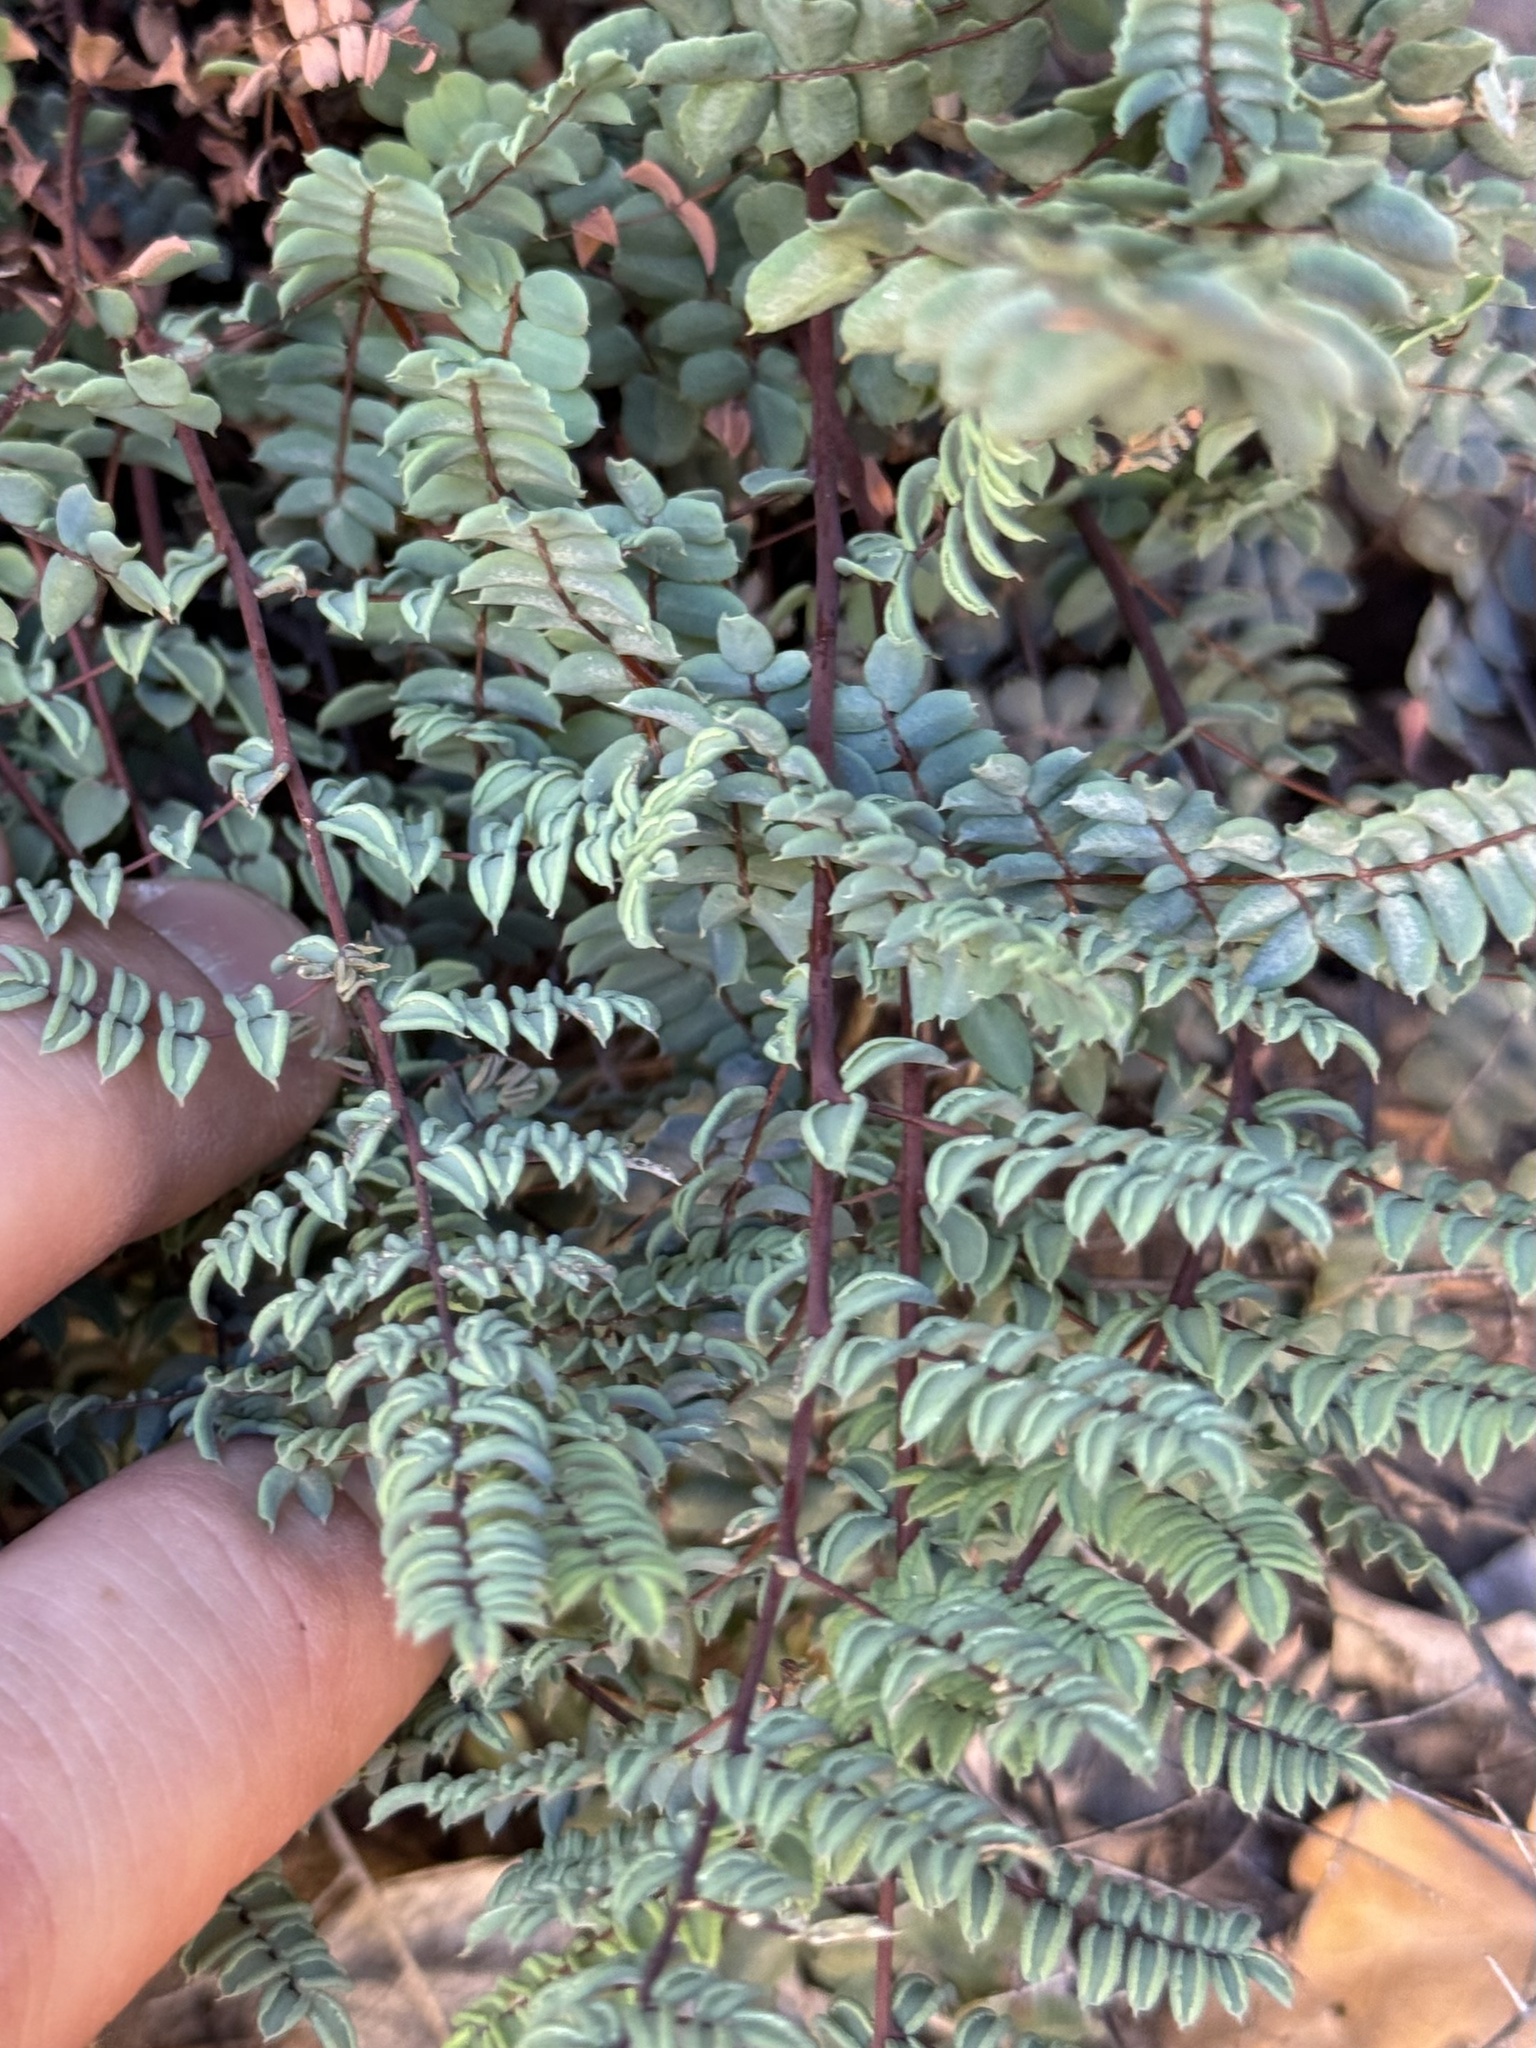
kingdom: Plantae
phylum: Tracheophyta
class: Polypodiopsida
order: Polypodiales
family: Pteridaceae
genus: Pellaea
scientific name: Pellaea truncata
